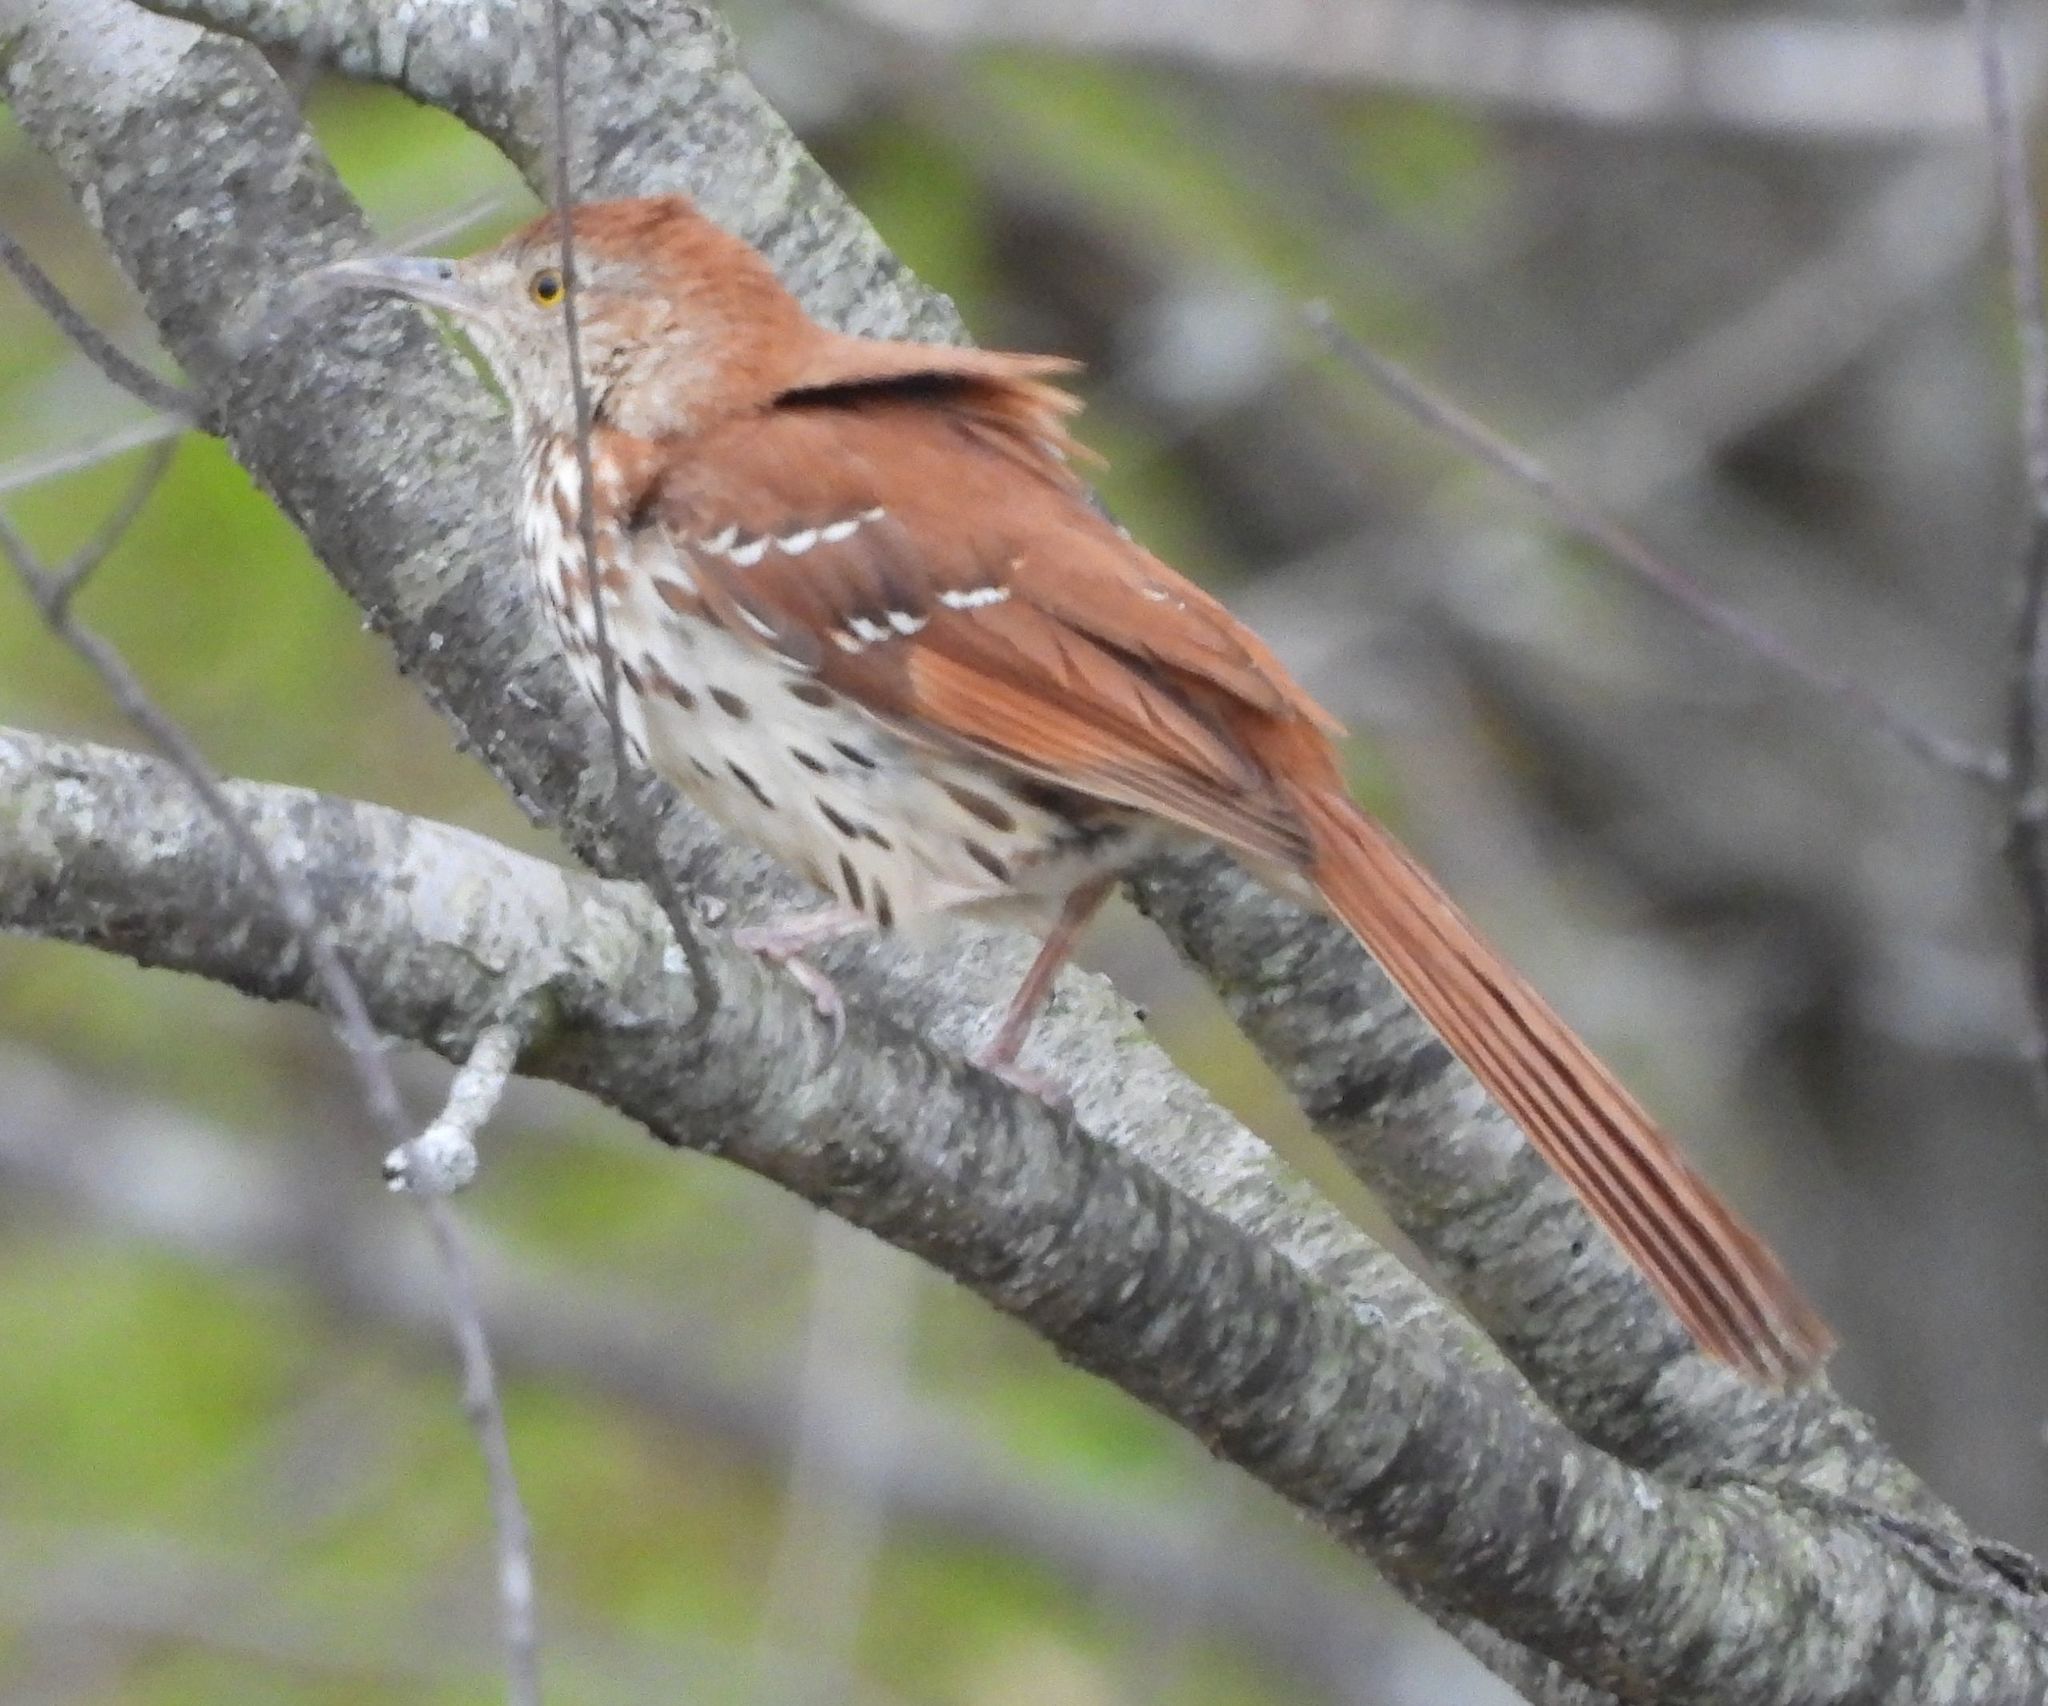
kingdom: Animalia
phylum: Chordata
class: Aves
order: Passeriformes
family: Mimidae
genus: Toxostoma
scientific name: Toxostoma rufum
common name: Brown thrasher
